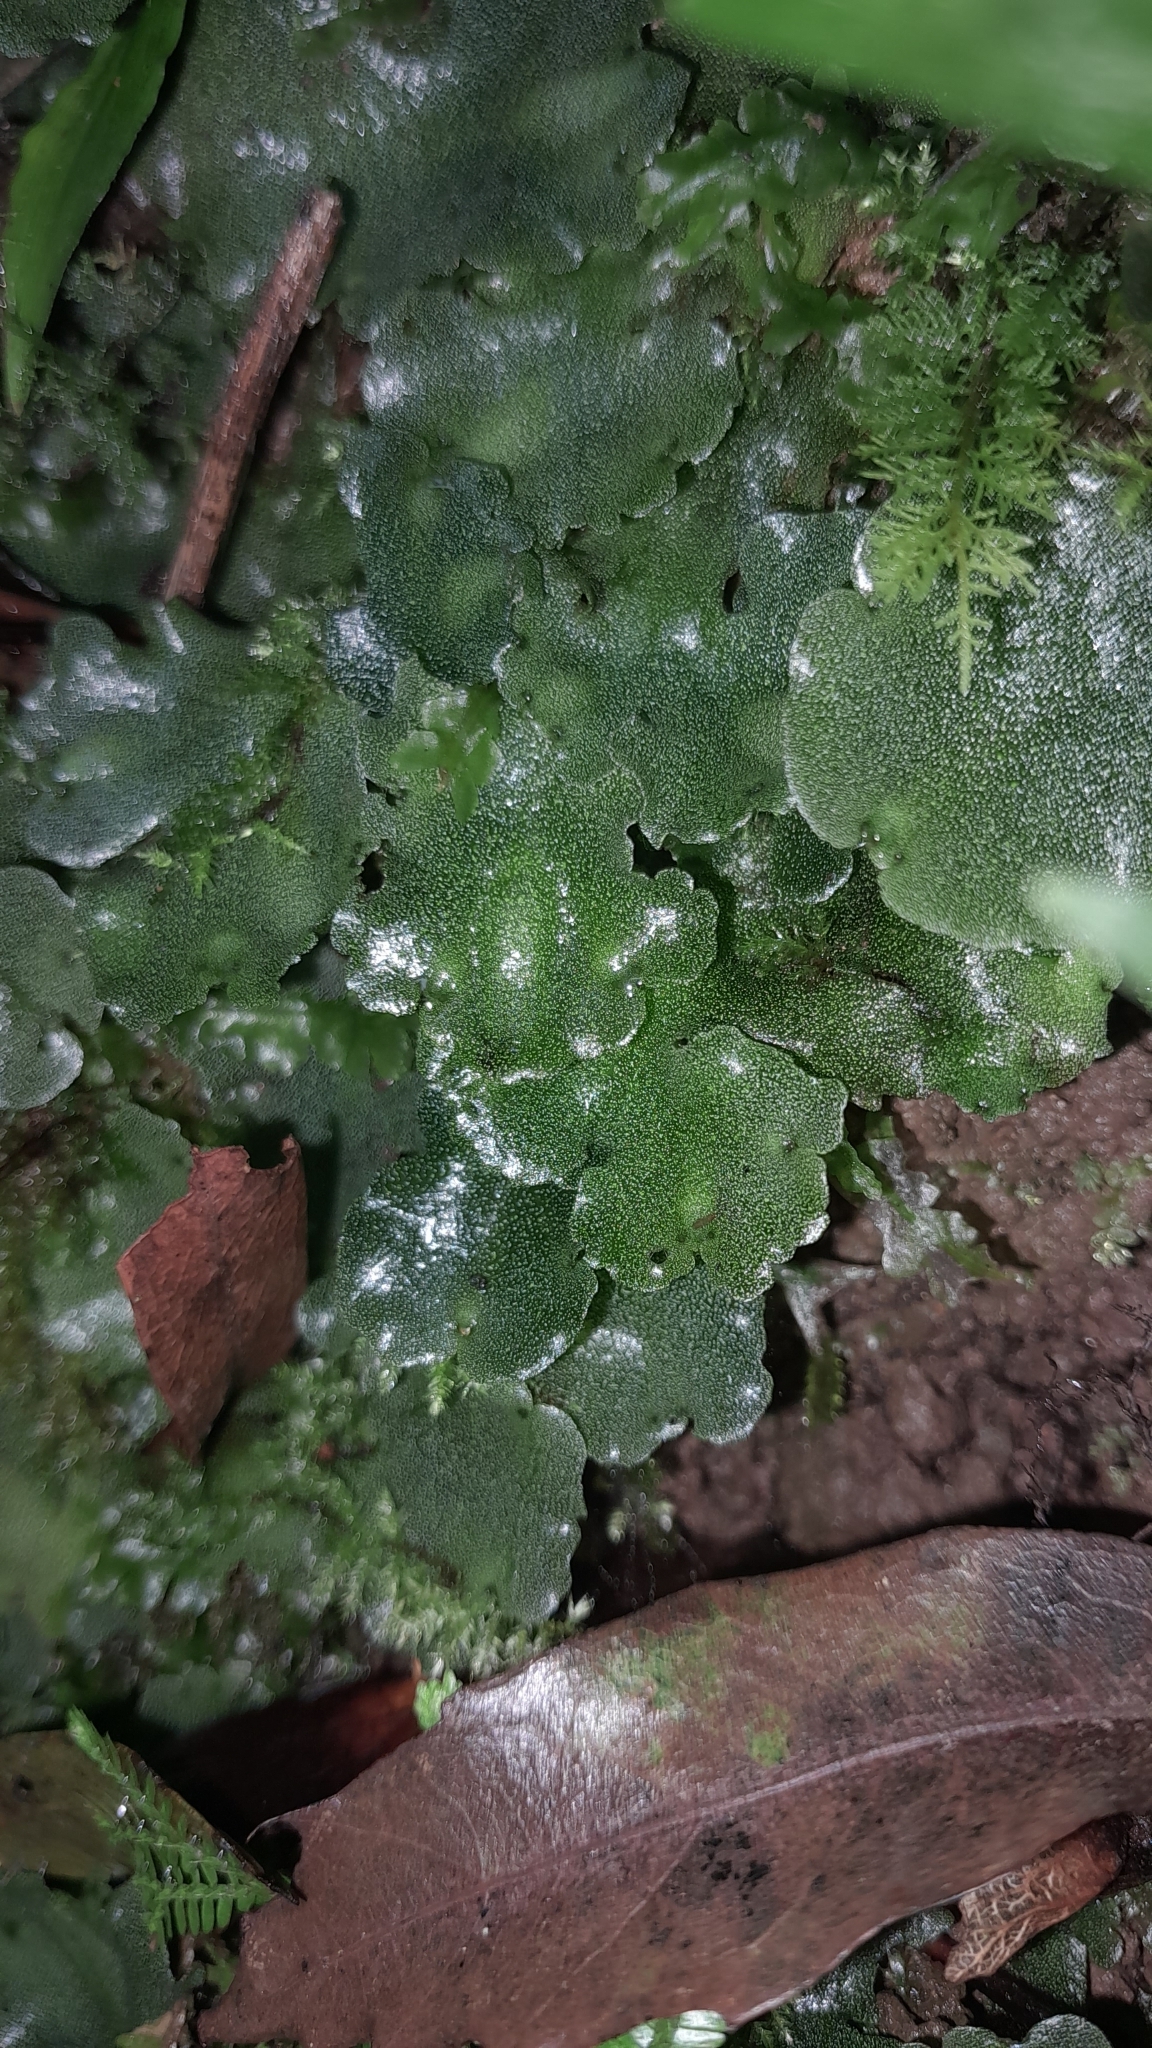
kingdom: Plantae
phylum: Marchantiophyta
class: Marchantiopsida
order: Marchantiales
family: Monocleaceae
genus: Monoclea
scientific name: Monoclea gottschei
